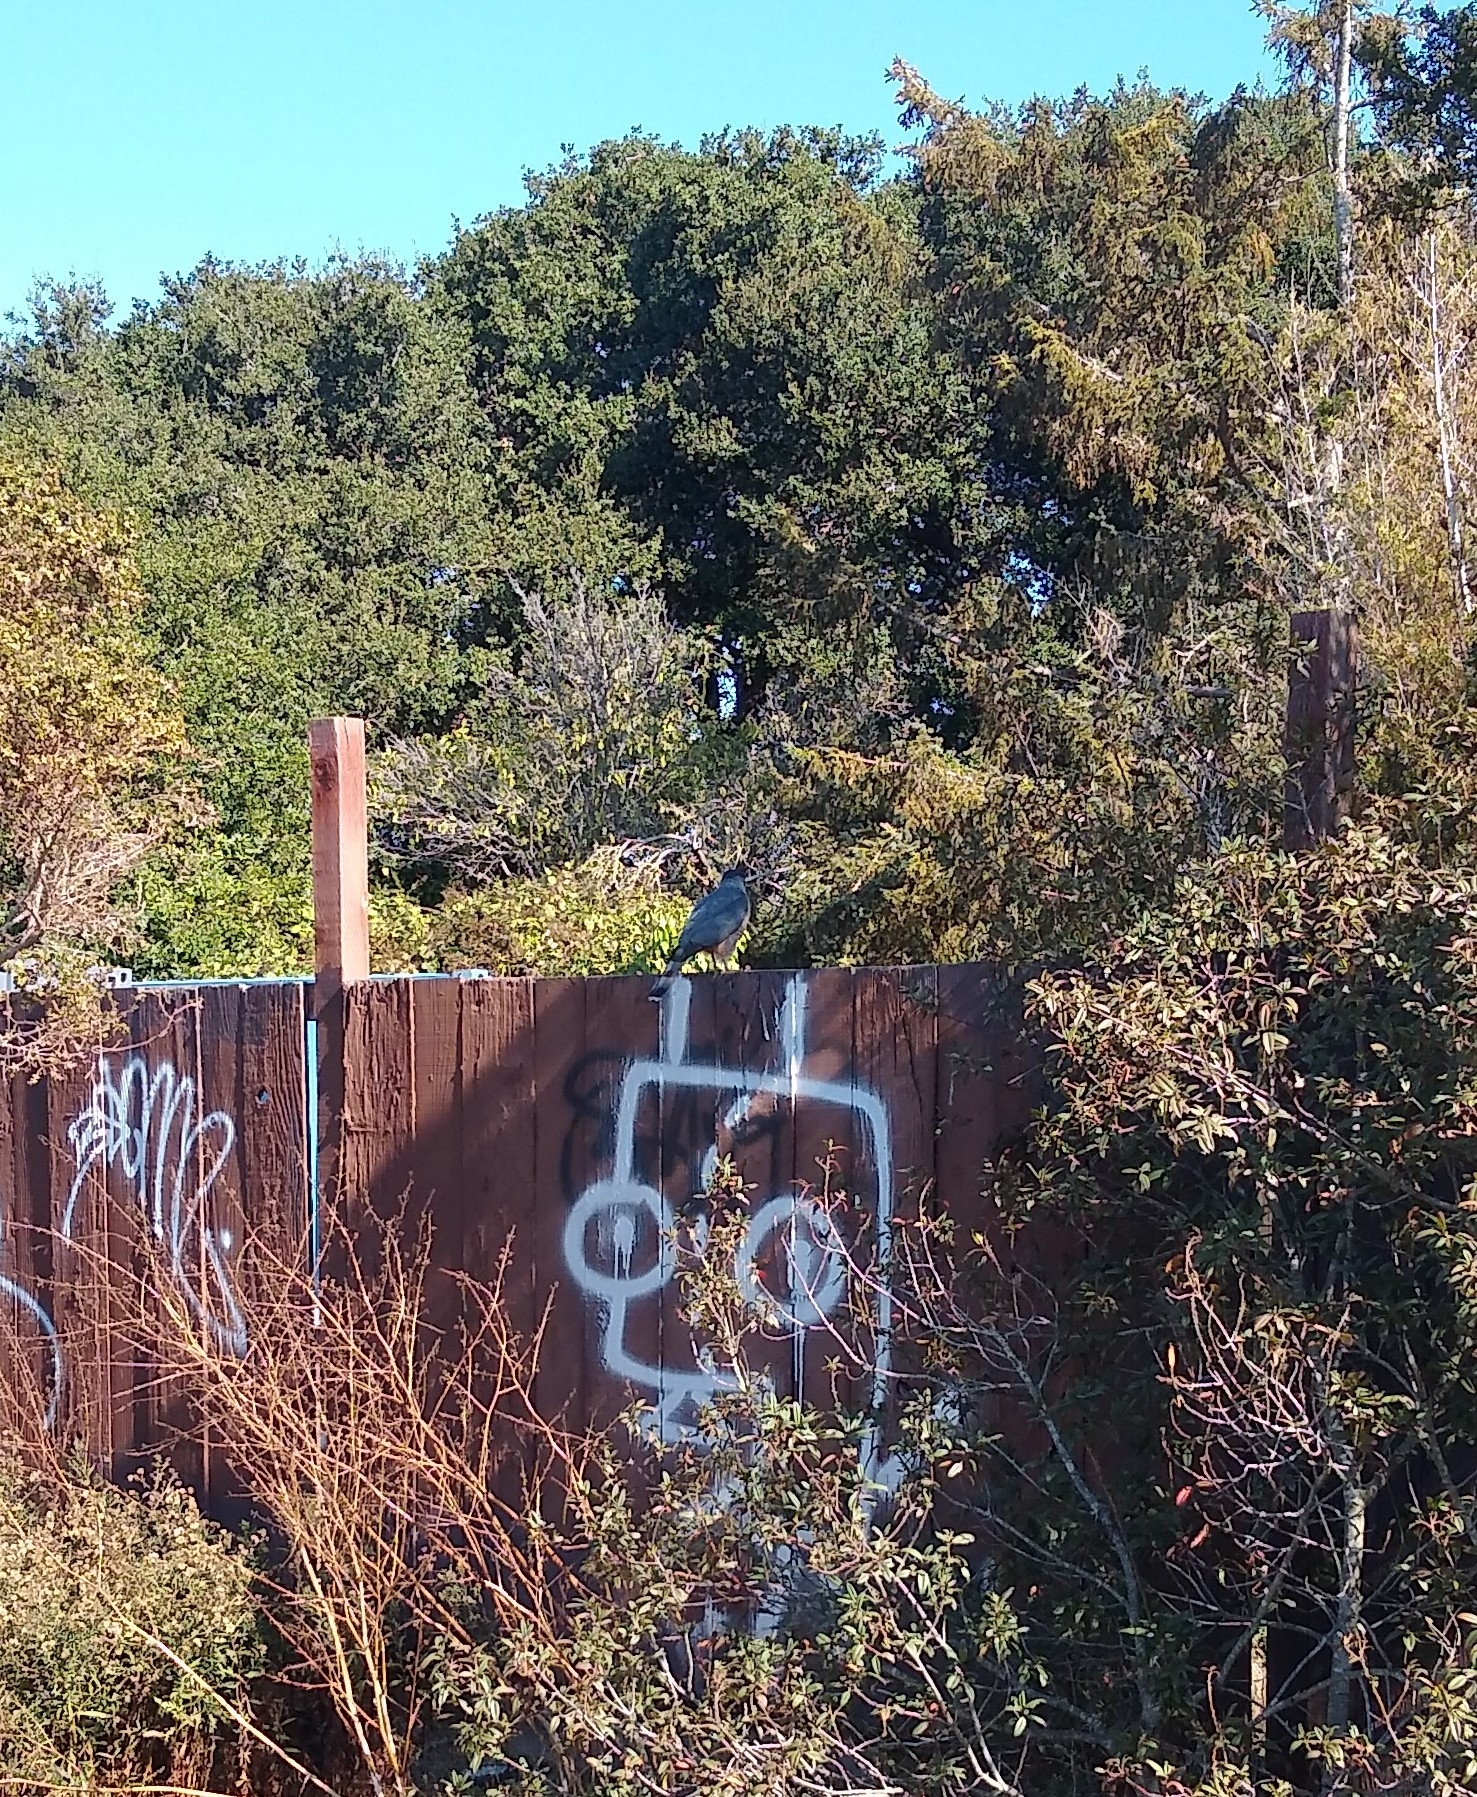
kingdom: Animalia
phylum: Chordata
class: Aves
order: Accipitriformes
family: Accipitridae
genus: Accipiter
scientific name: Accipiter cooperii
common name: Cooper's hawk
